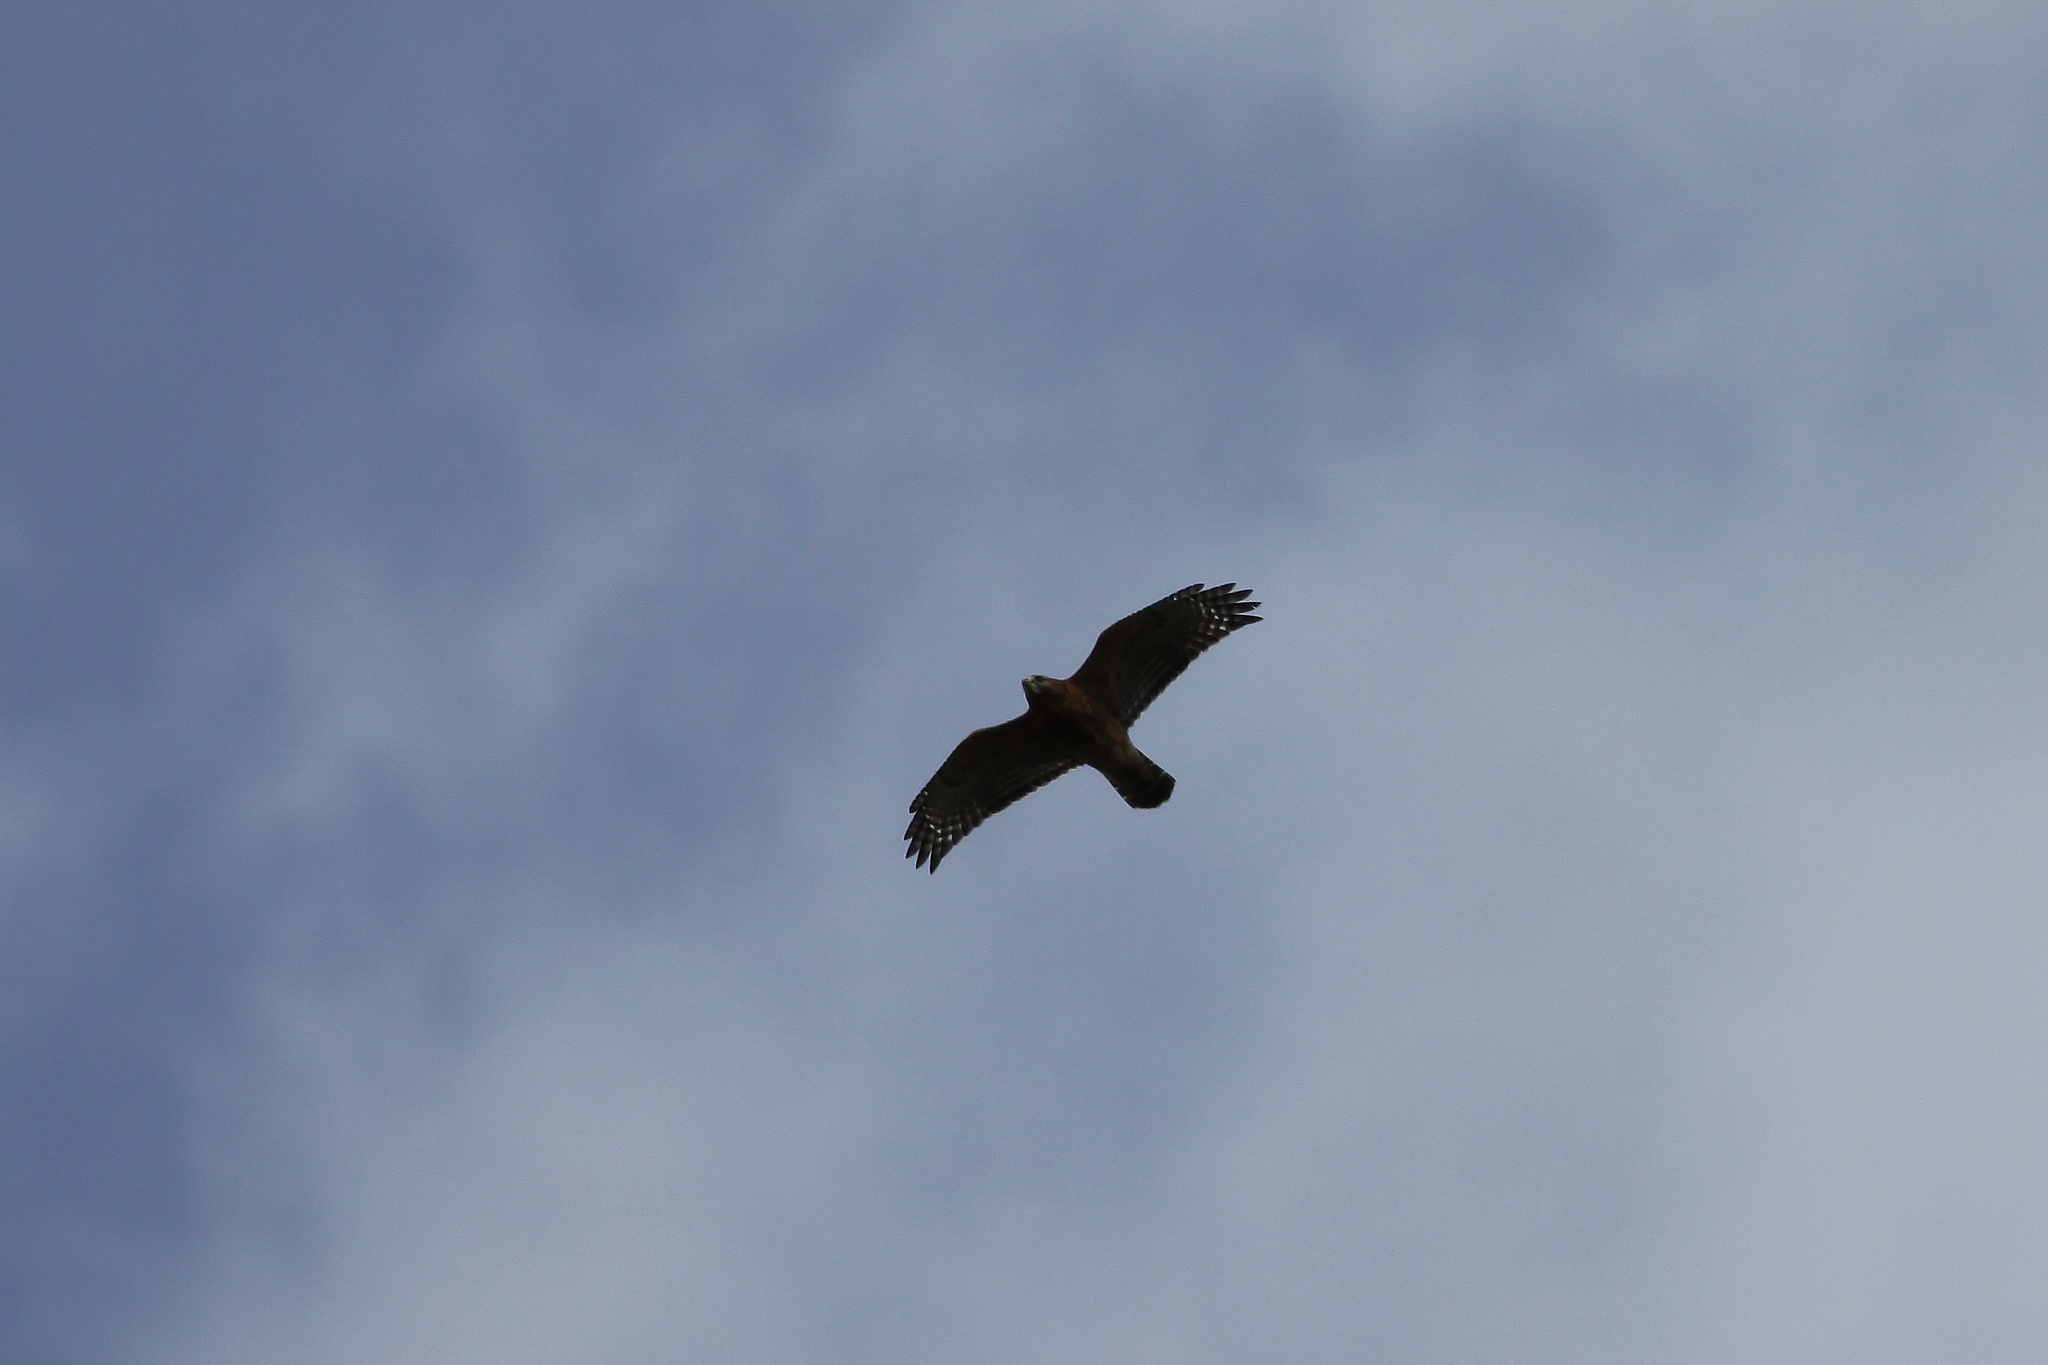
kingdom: Animalia
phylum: Chordata
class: Aves
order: Accipitriformes
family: Accipitridae
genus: Buteo
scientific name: Buteo lineatus
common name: Red-shouldered hawk
